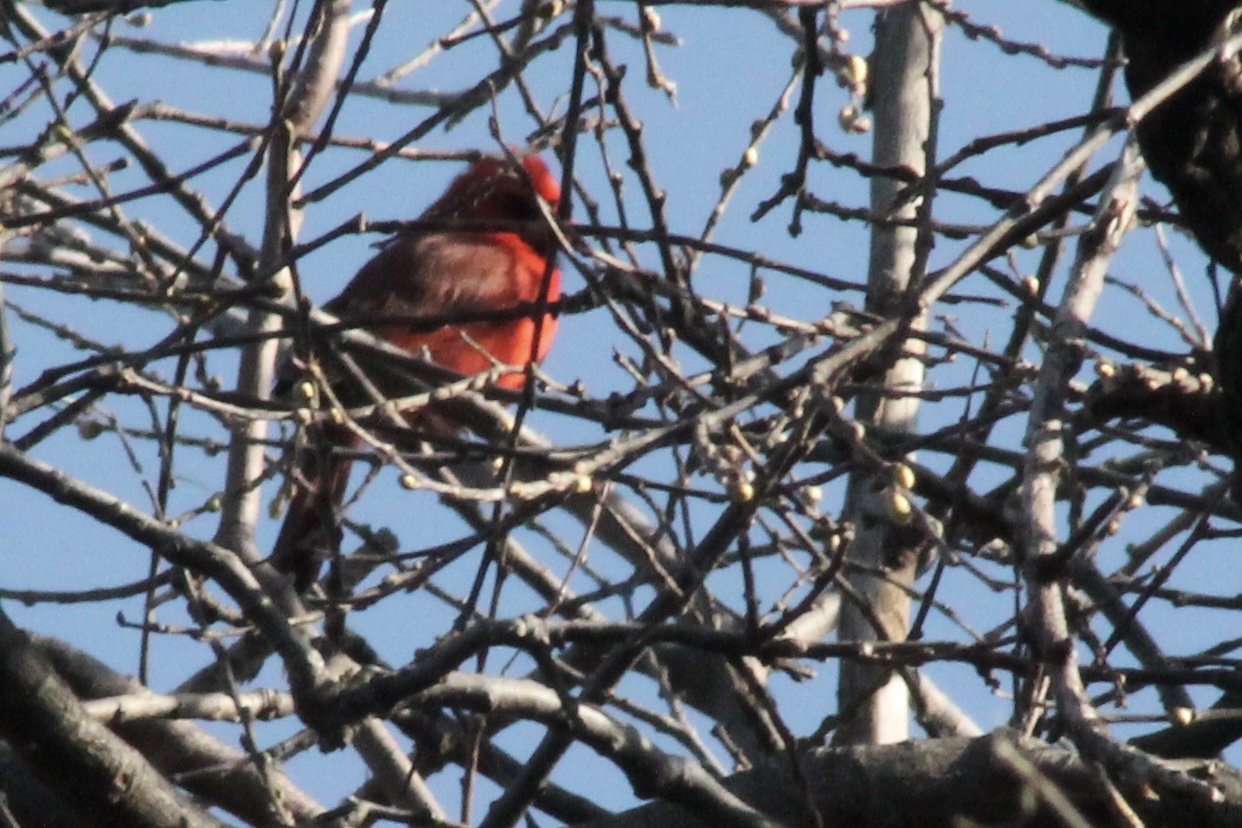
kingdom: Animalia
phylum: Chordata
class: Aves
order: Passeriformes
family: Cardinalidae
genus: Cardinalis
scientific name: Cardinalis cardinalis
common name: Northern cardinal
